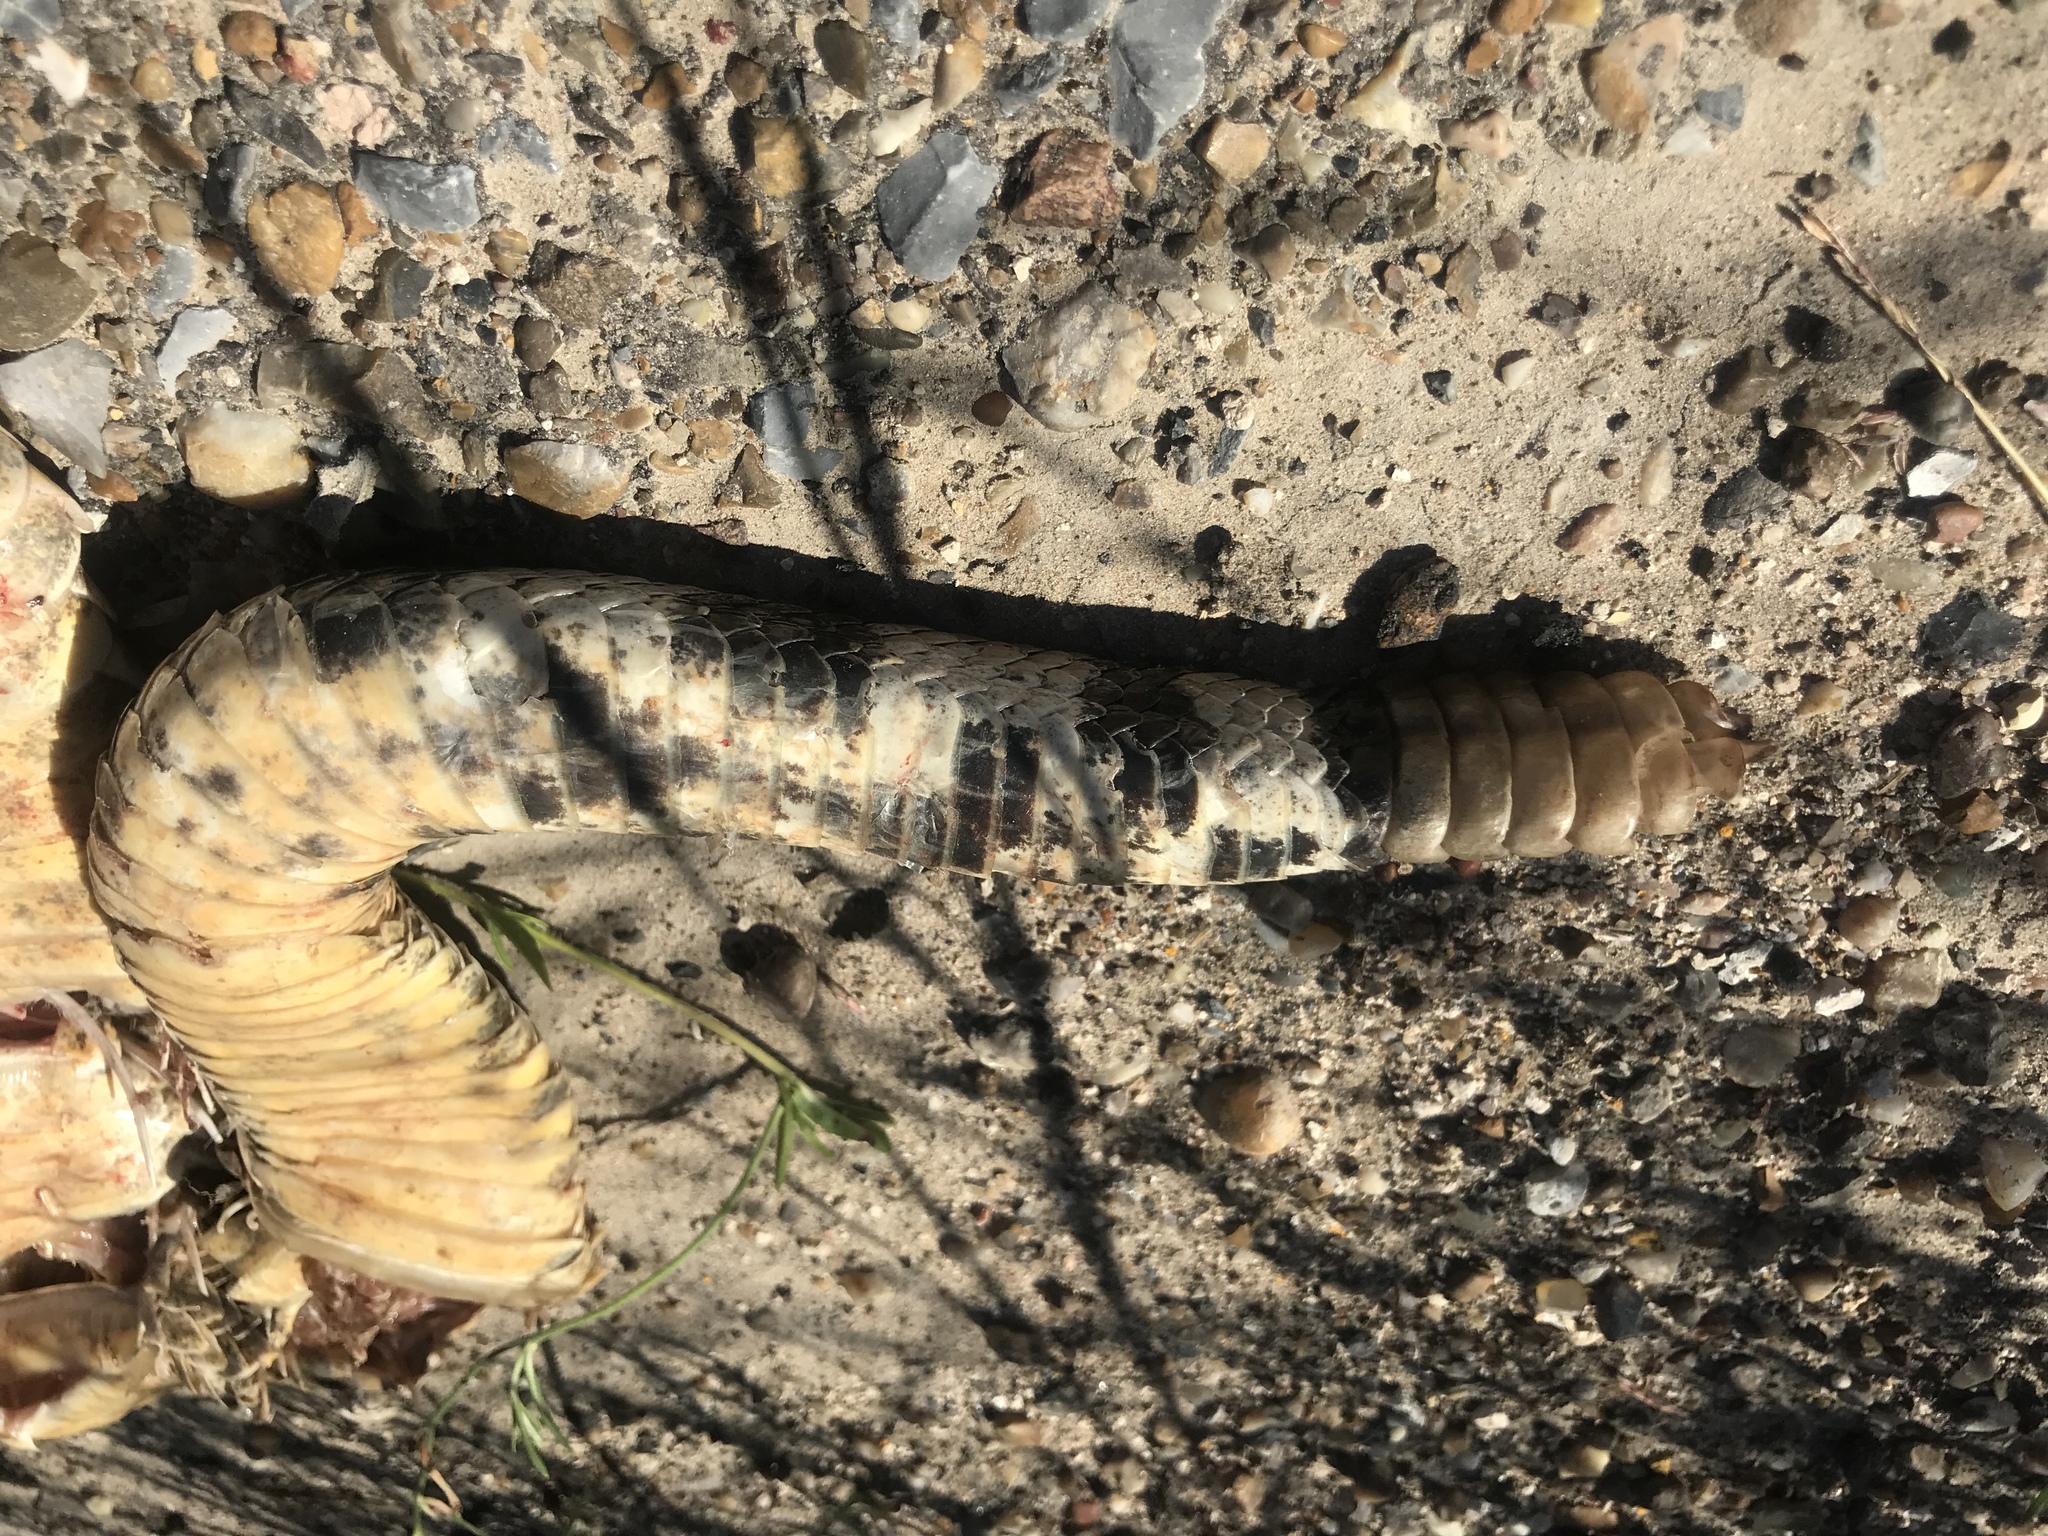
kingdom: Animalia
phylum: Chordata
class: Squamata
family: Viperidae
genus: Crotalus
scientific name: Crotalus atrox
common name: Western diamond-backed rattlesnake
